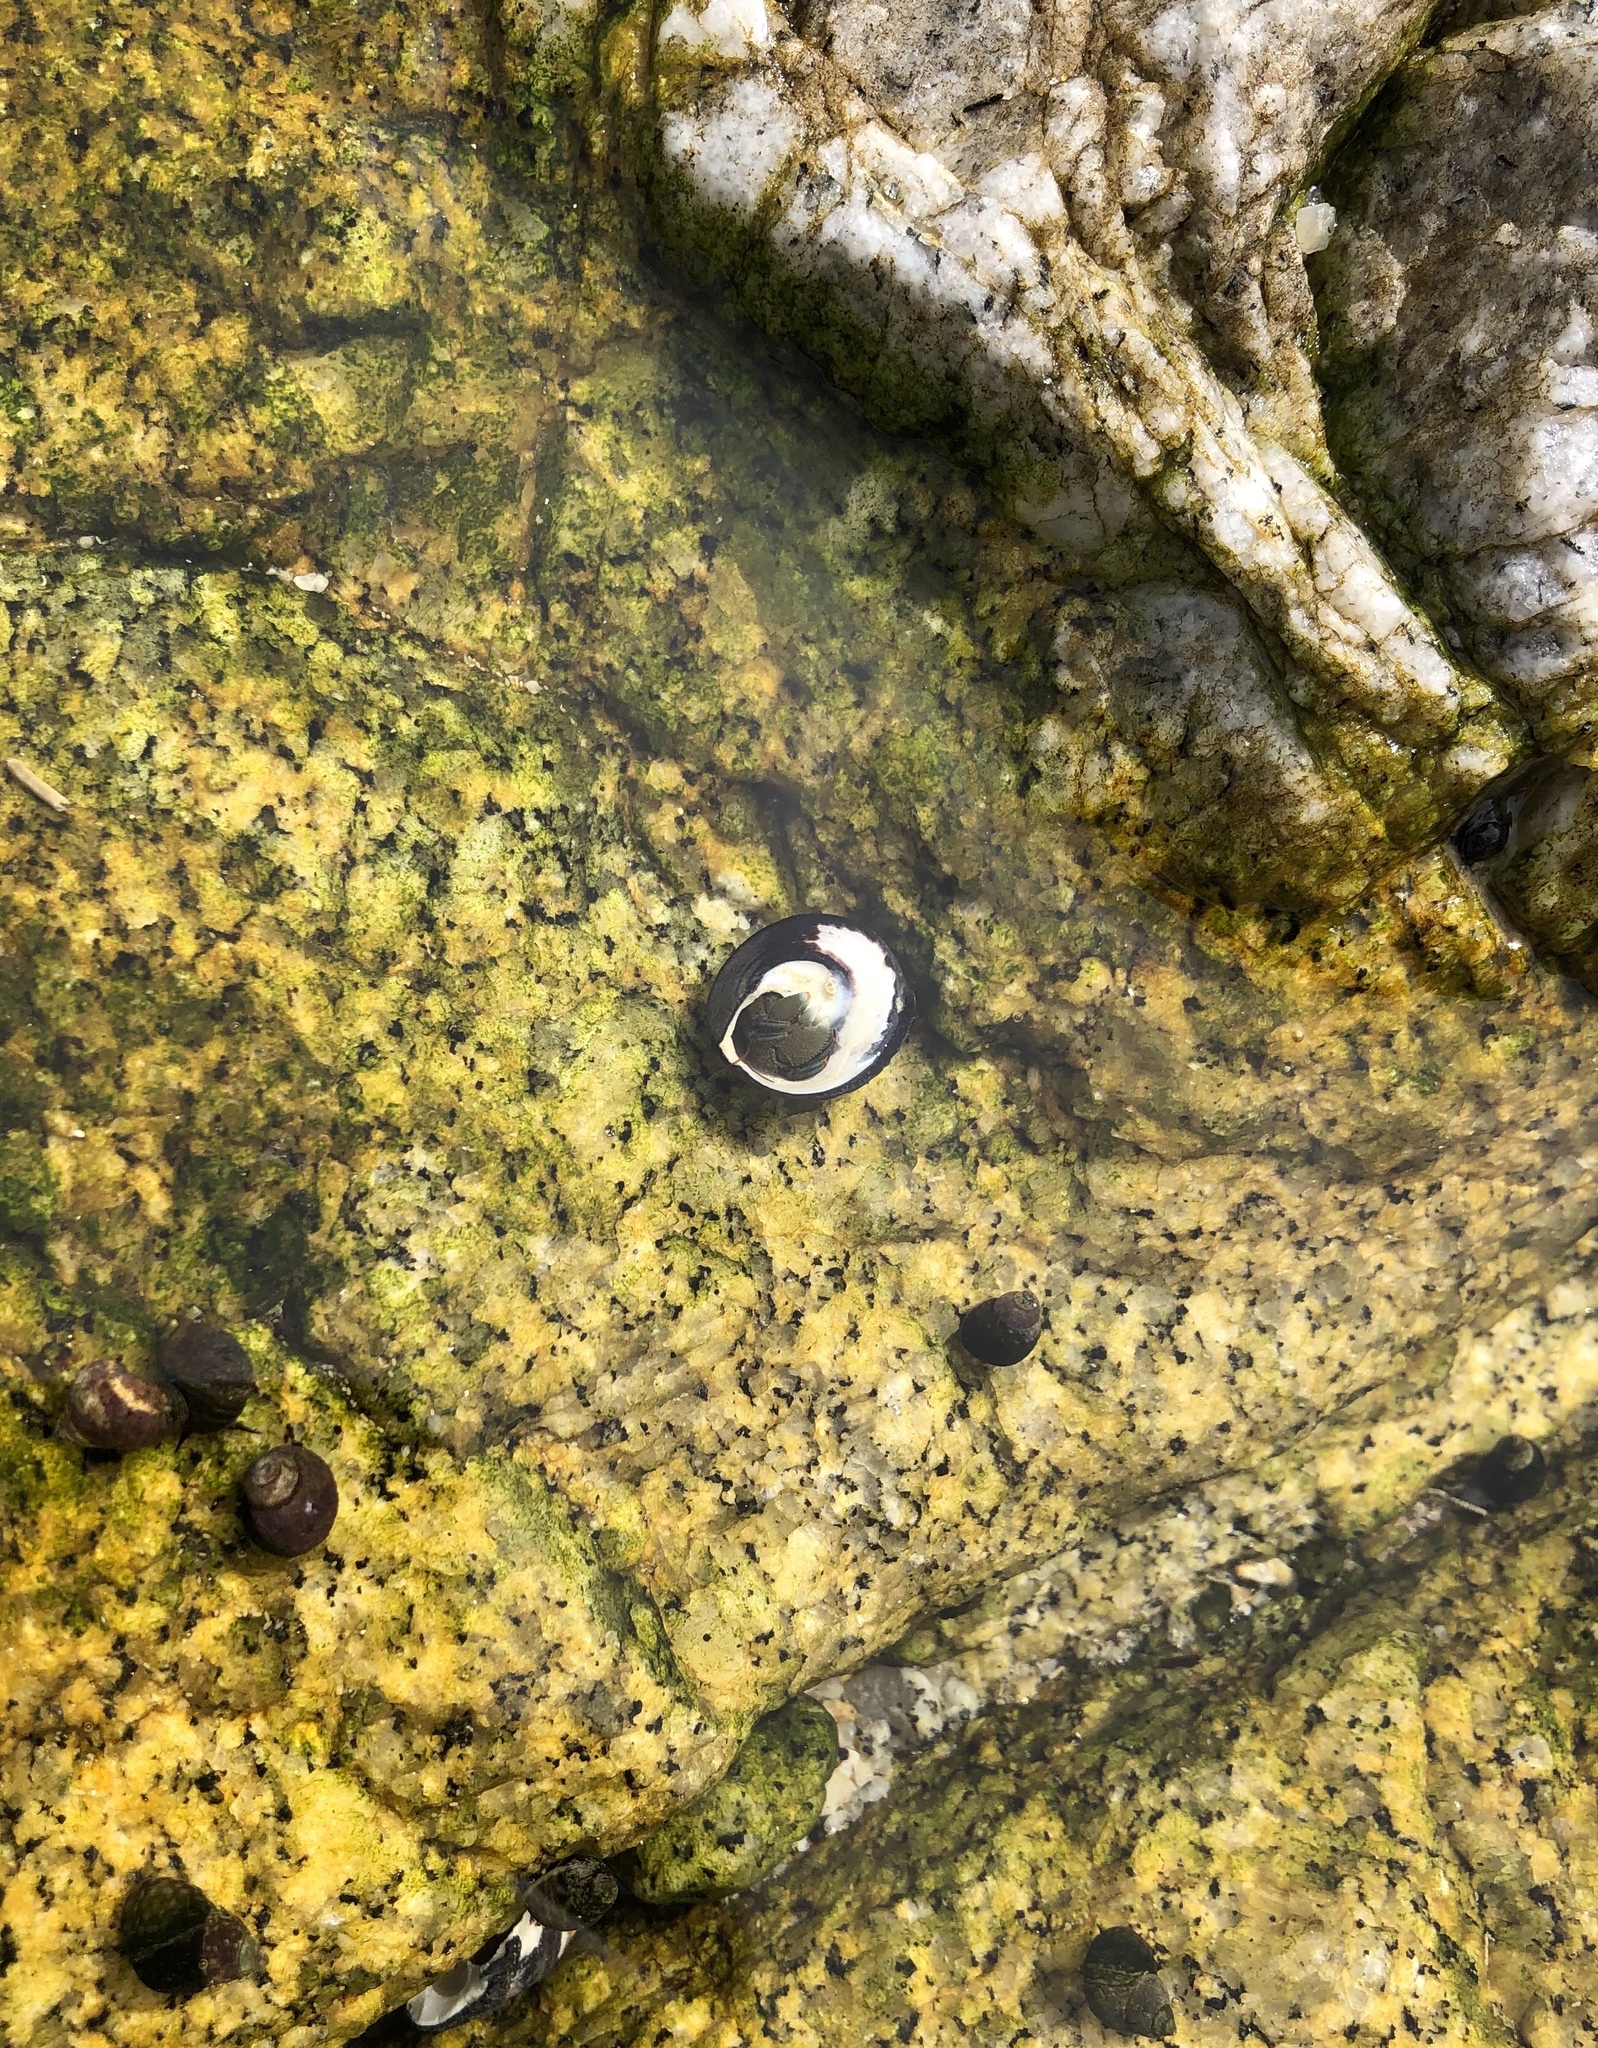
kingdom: Animalia
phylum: Arthropoda
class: Malacostraca
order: Decapoda
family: Paguridae
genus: Pagurus
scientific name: Pagurus samuelis
